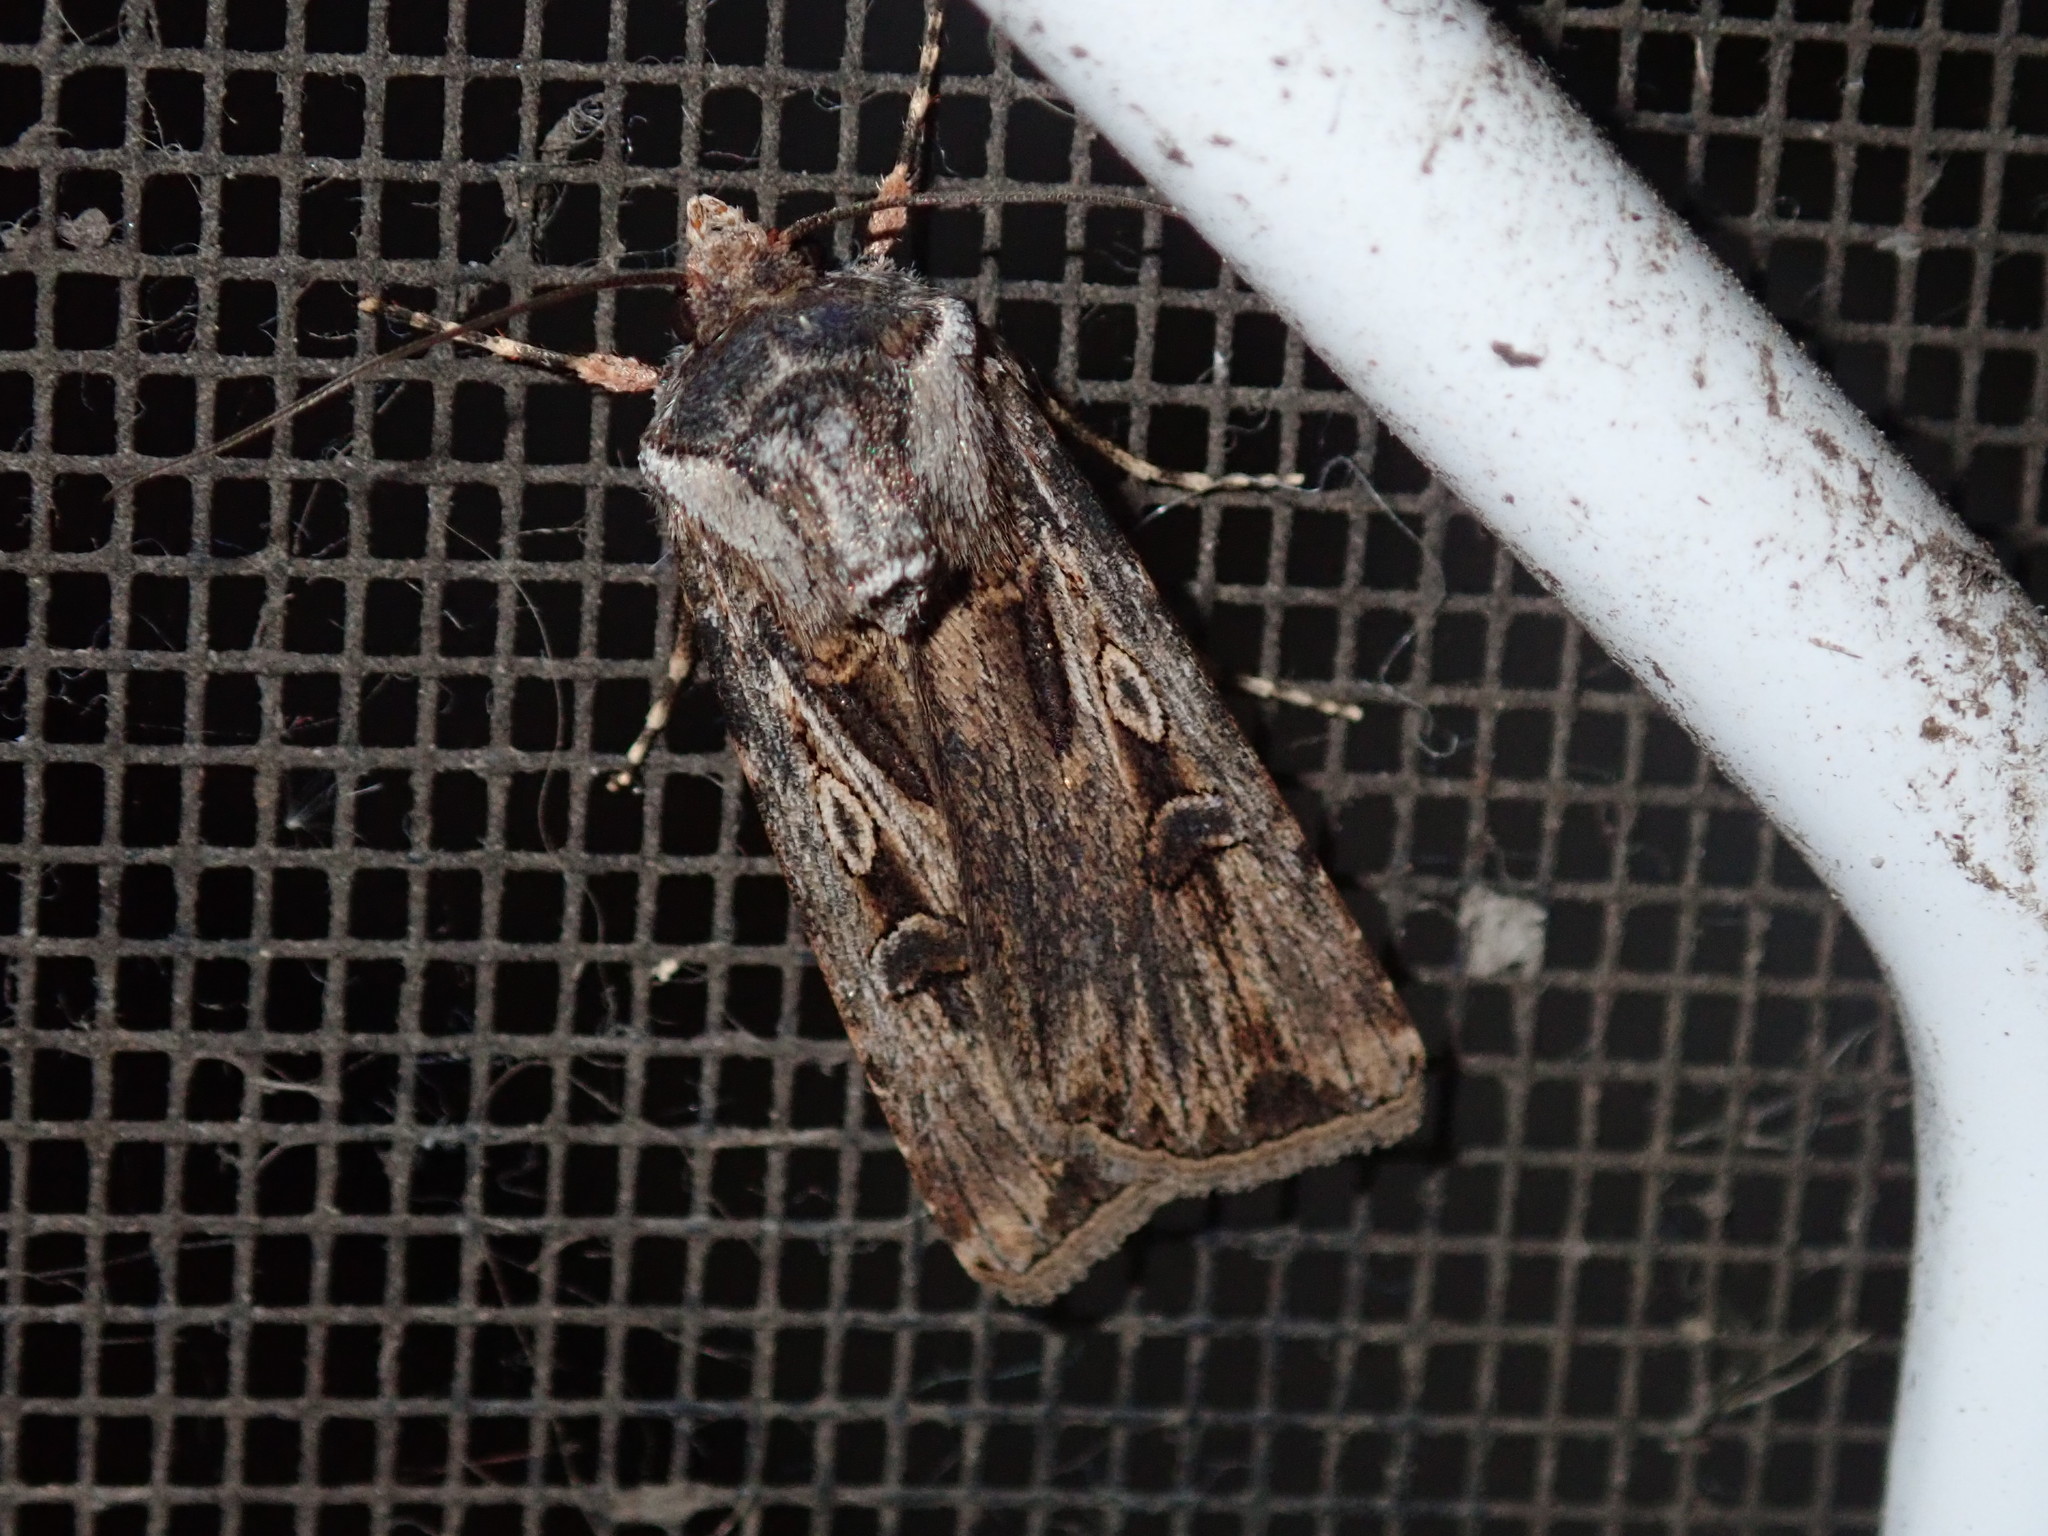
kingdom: Animalia
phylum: Arthropoda
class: Insecta
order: Lepidoptera
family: Noctuidae
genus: Agrotis
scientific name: Agrotis munda
